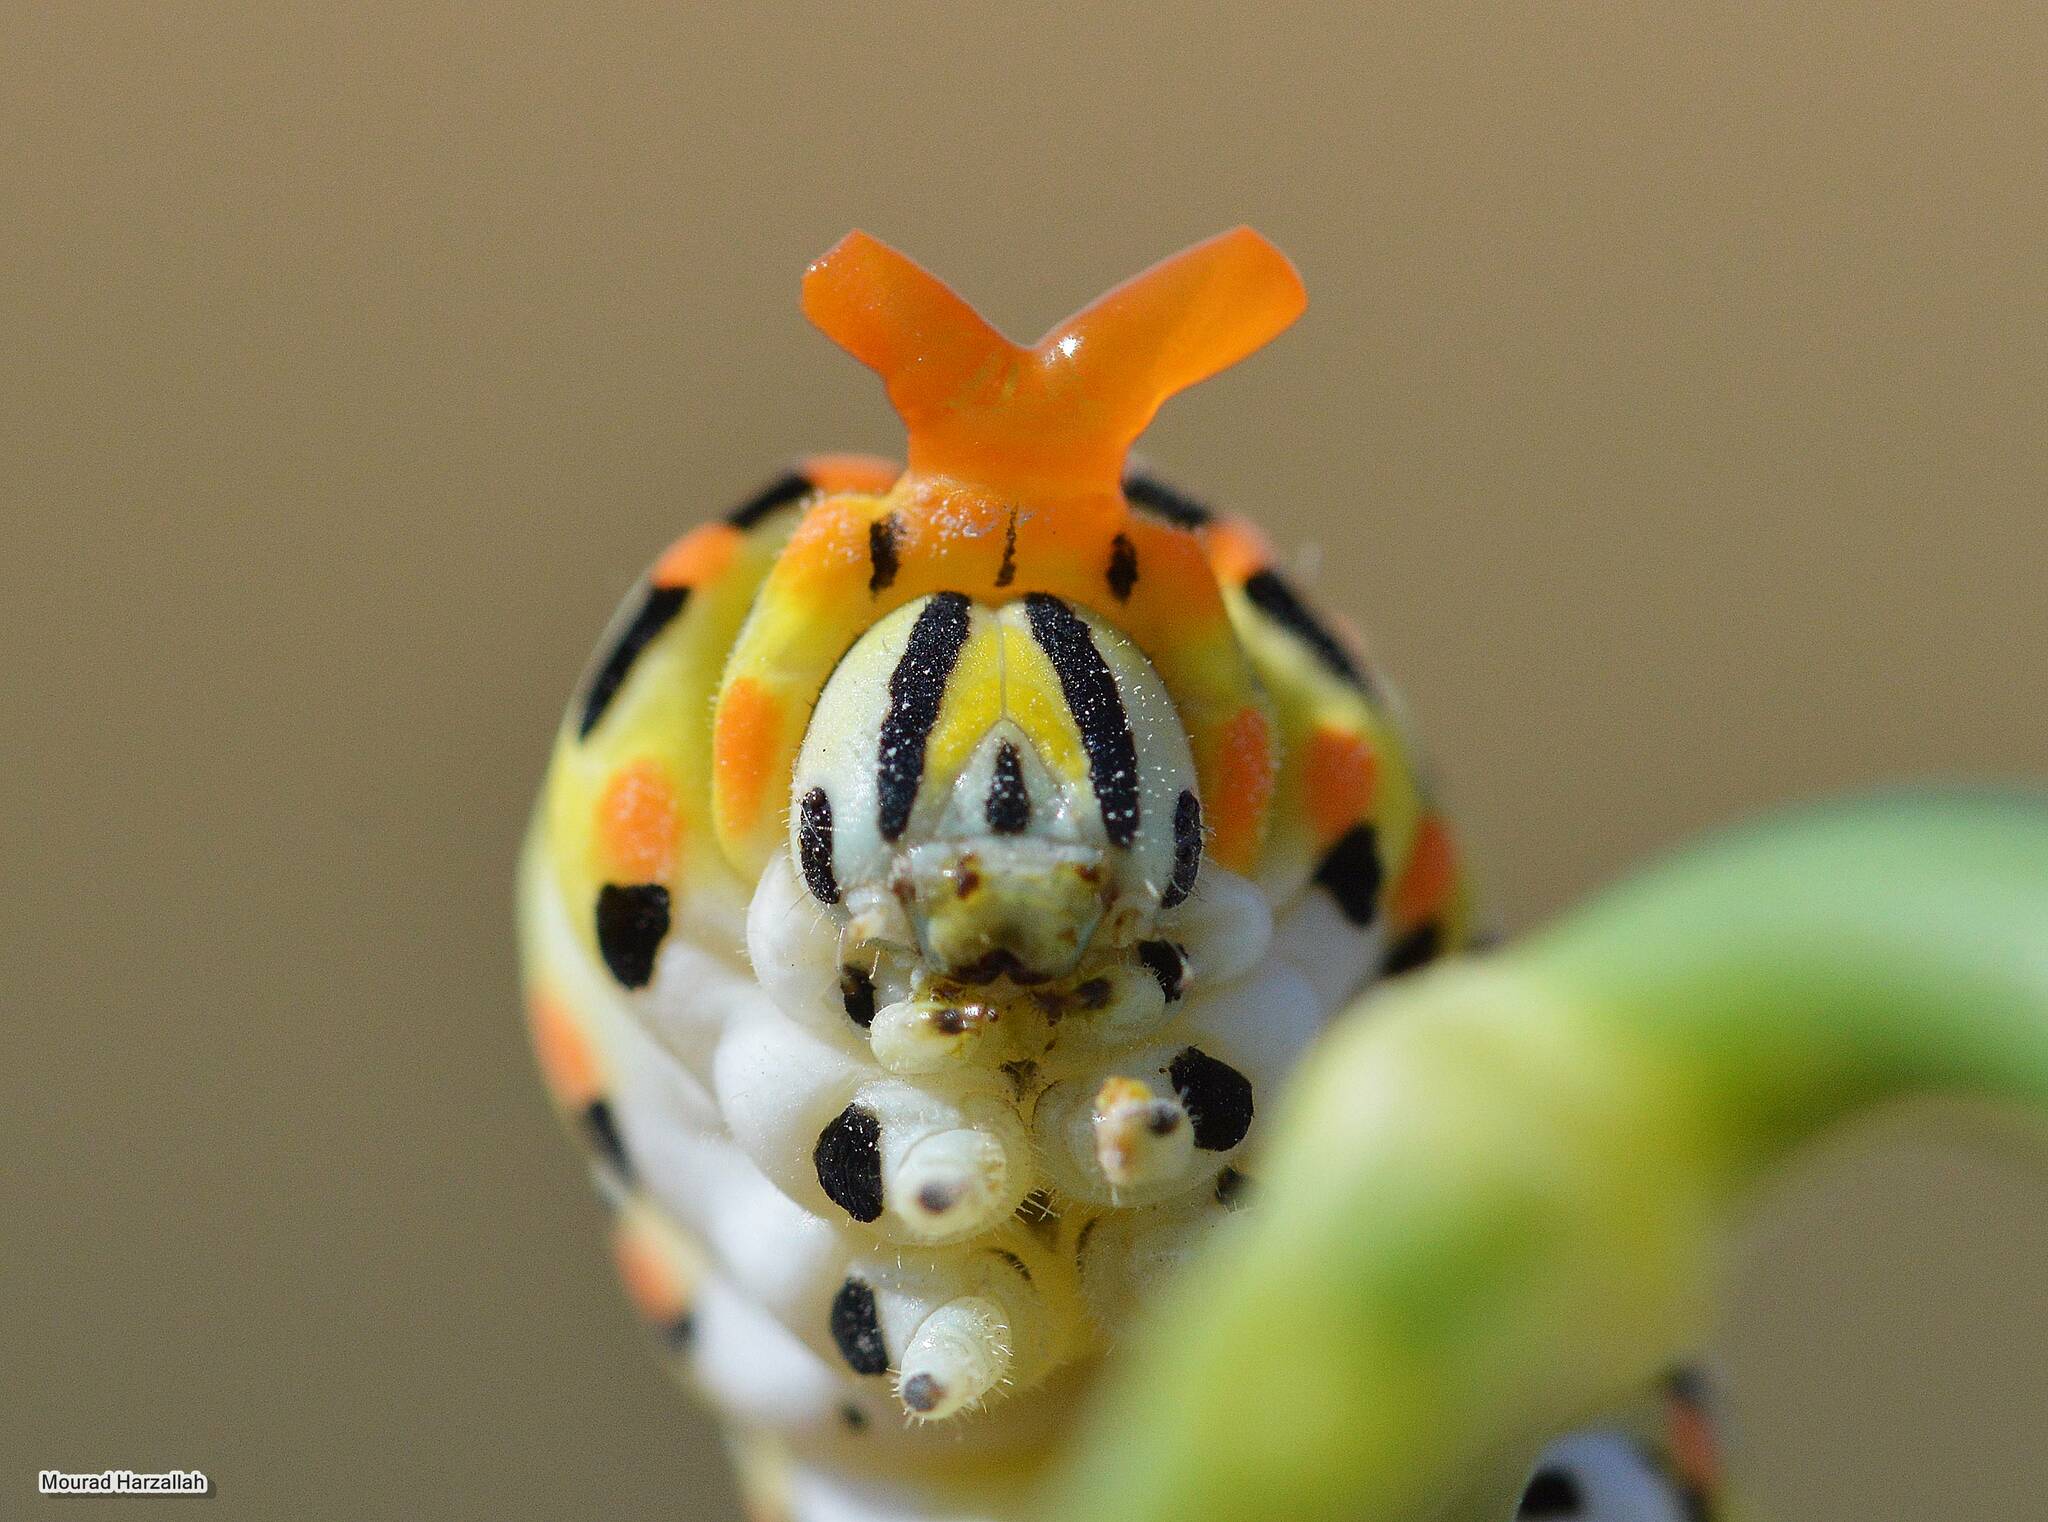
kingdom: Animalia
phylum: Arthropoda
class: Insecta
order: Lepidoptera
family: Papilionidae
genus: Papilio
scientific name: Papilio machaon
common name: Swallowtail
